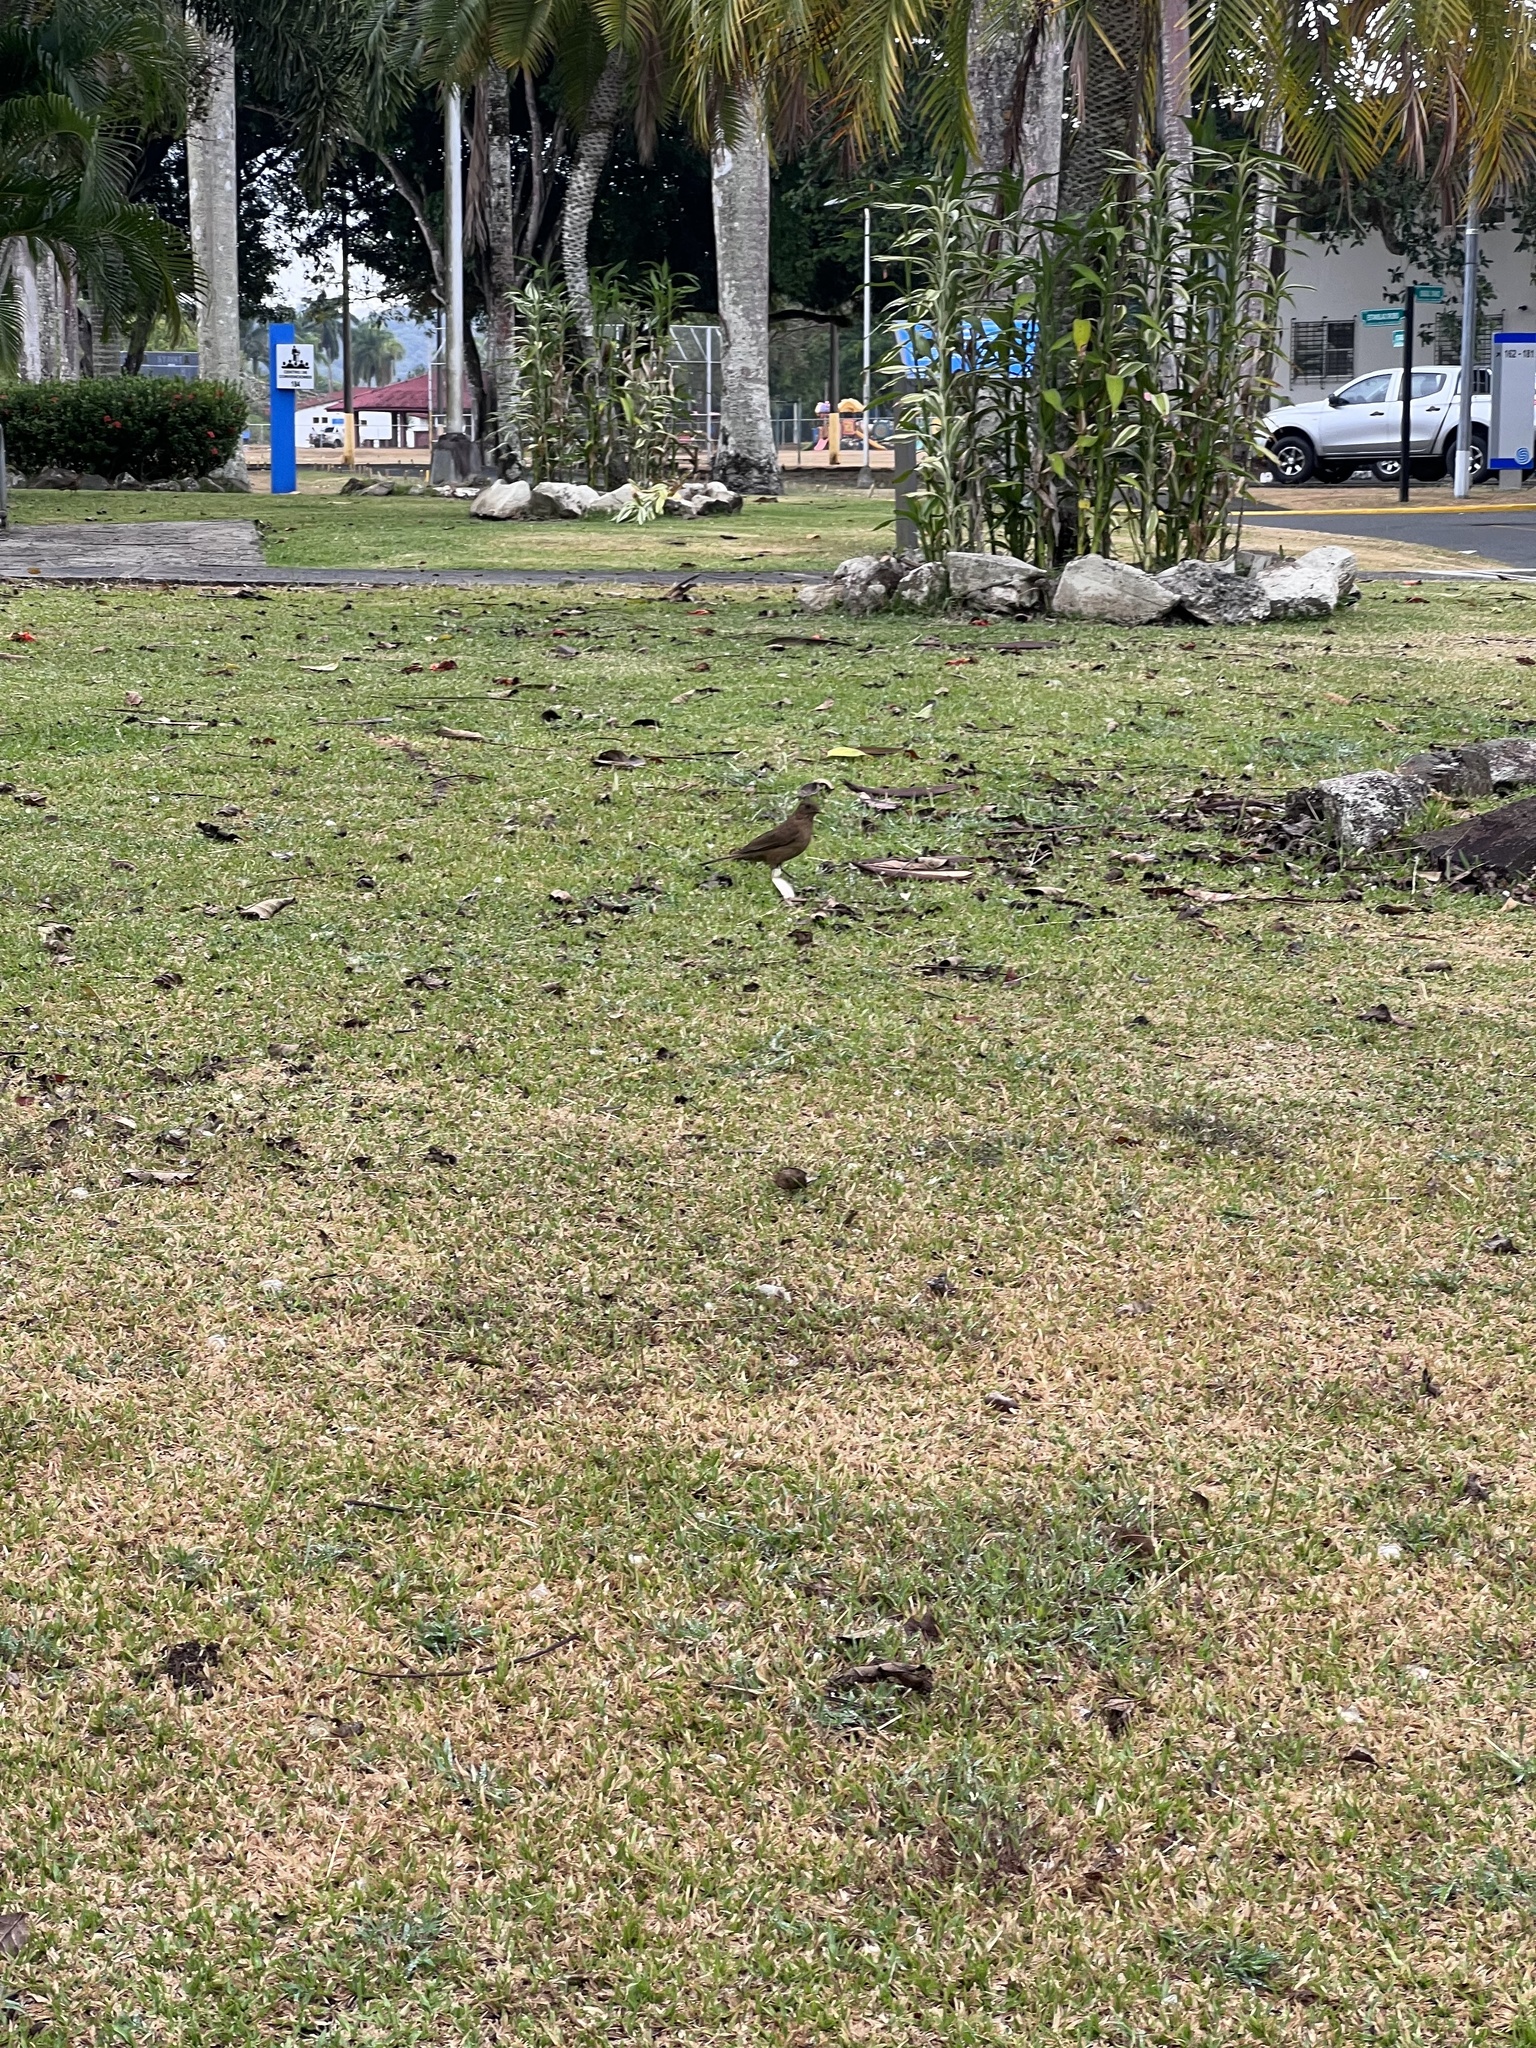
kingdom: Animalia
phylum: Chordata
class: Aves
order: Passeriformes
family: Turdidae
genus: Turdus
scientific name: Turdus grayi
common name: Clay-colored thrush
